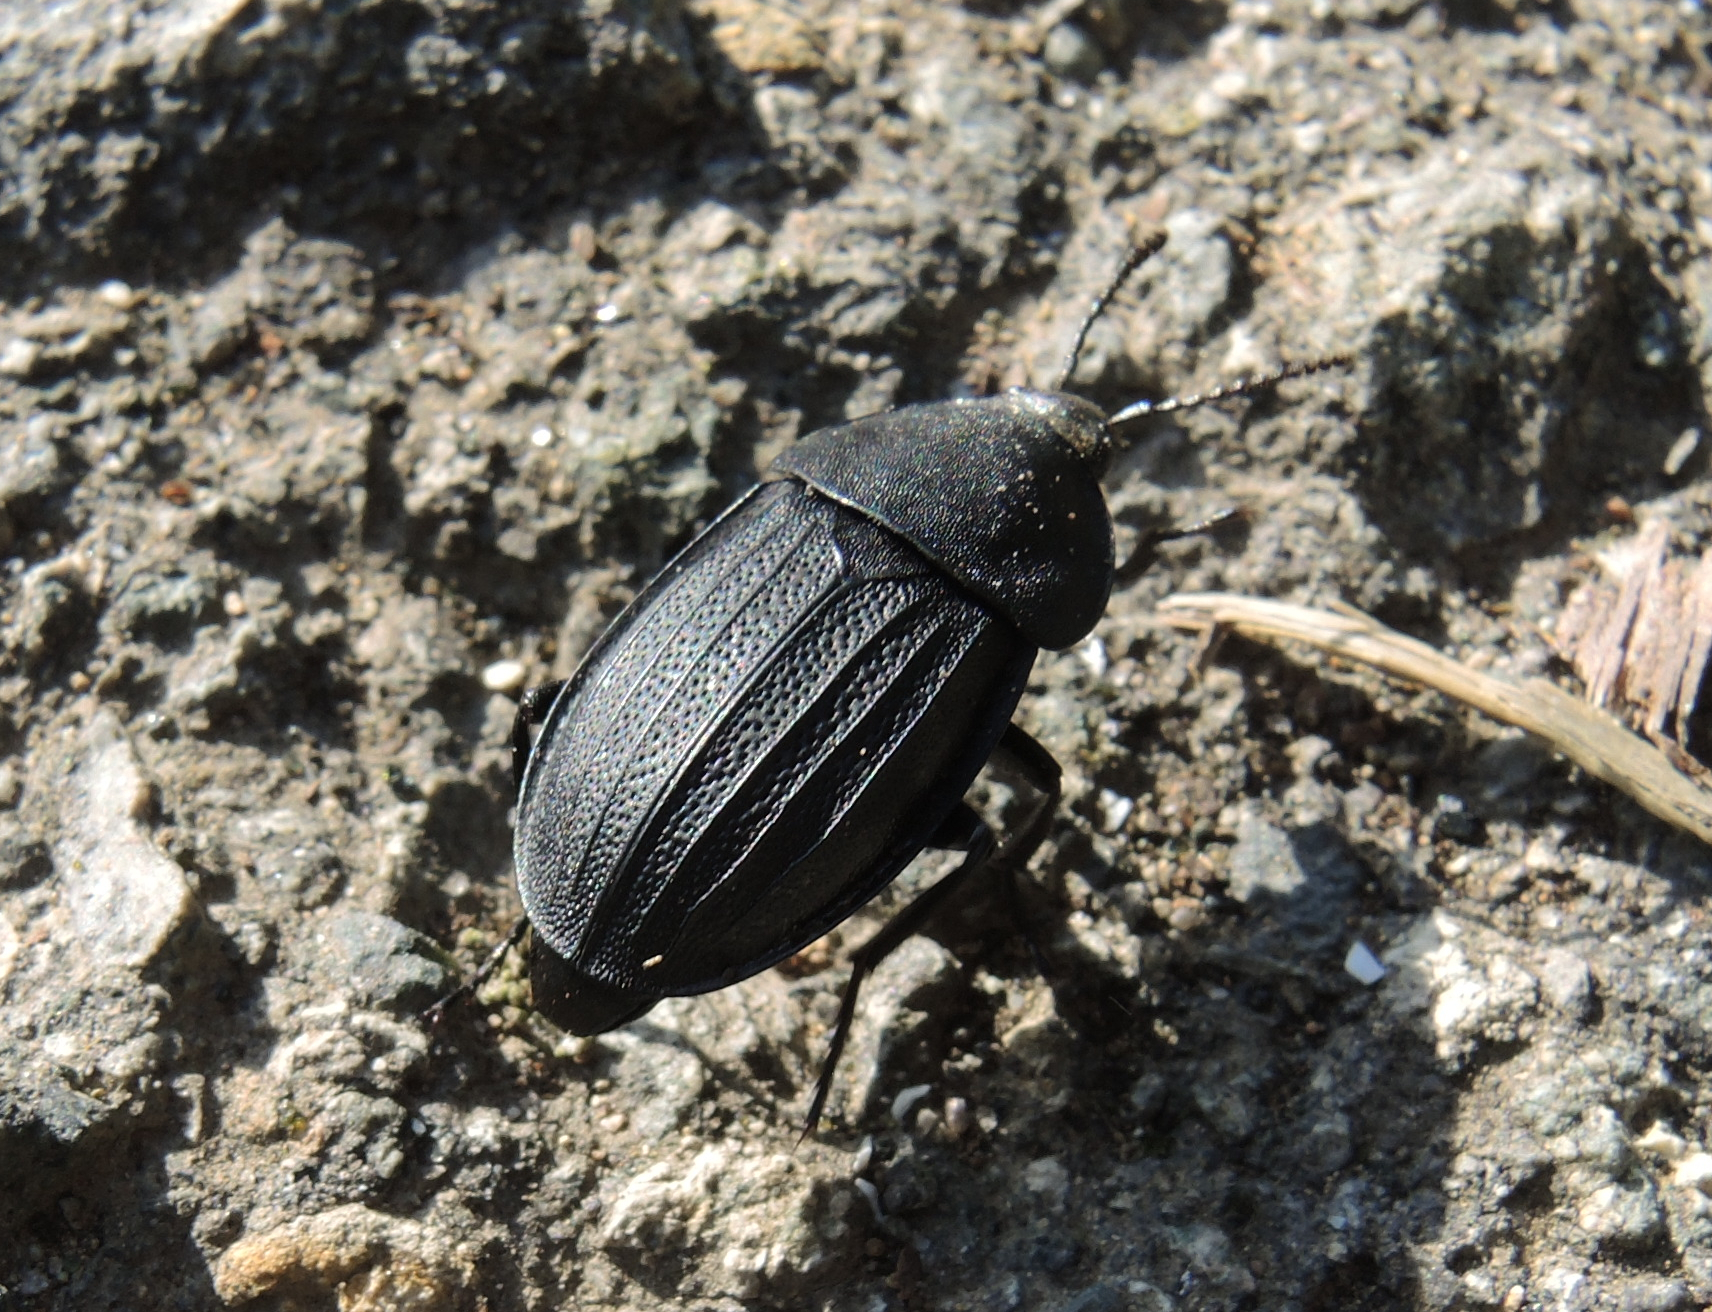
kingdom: Animalia
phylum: Arthropoda
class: Insecta
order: Coleoptera
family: Staphylinidae
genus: Silpha
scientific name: Silpha obscura
